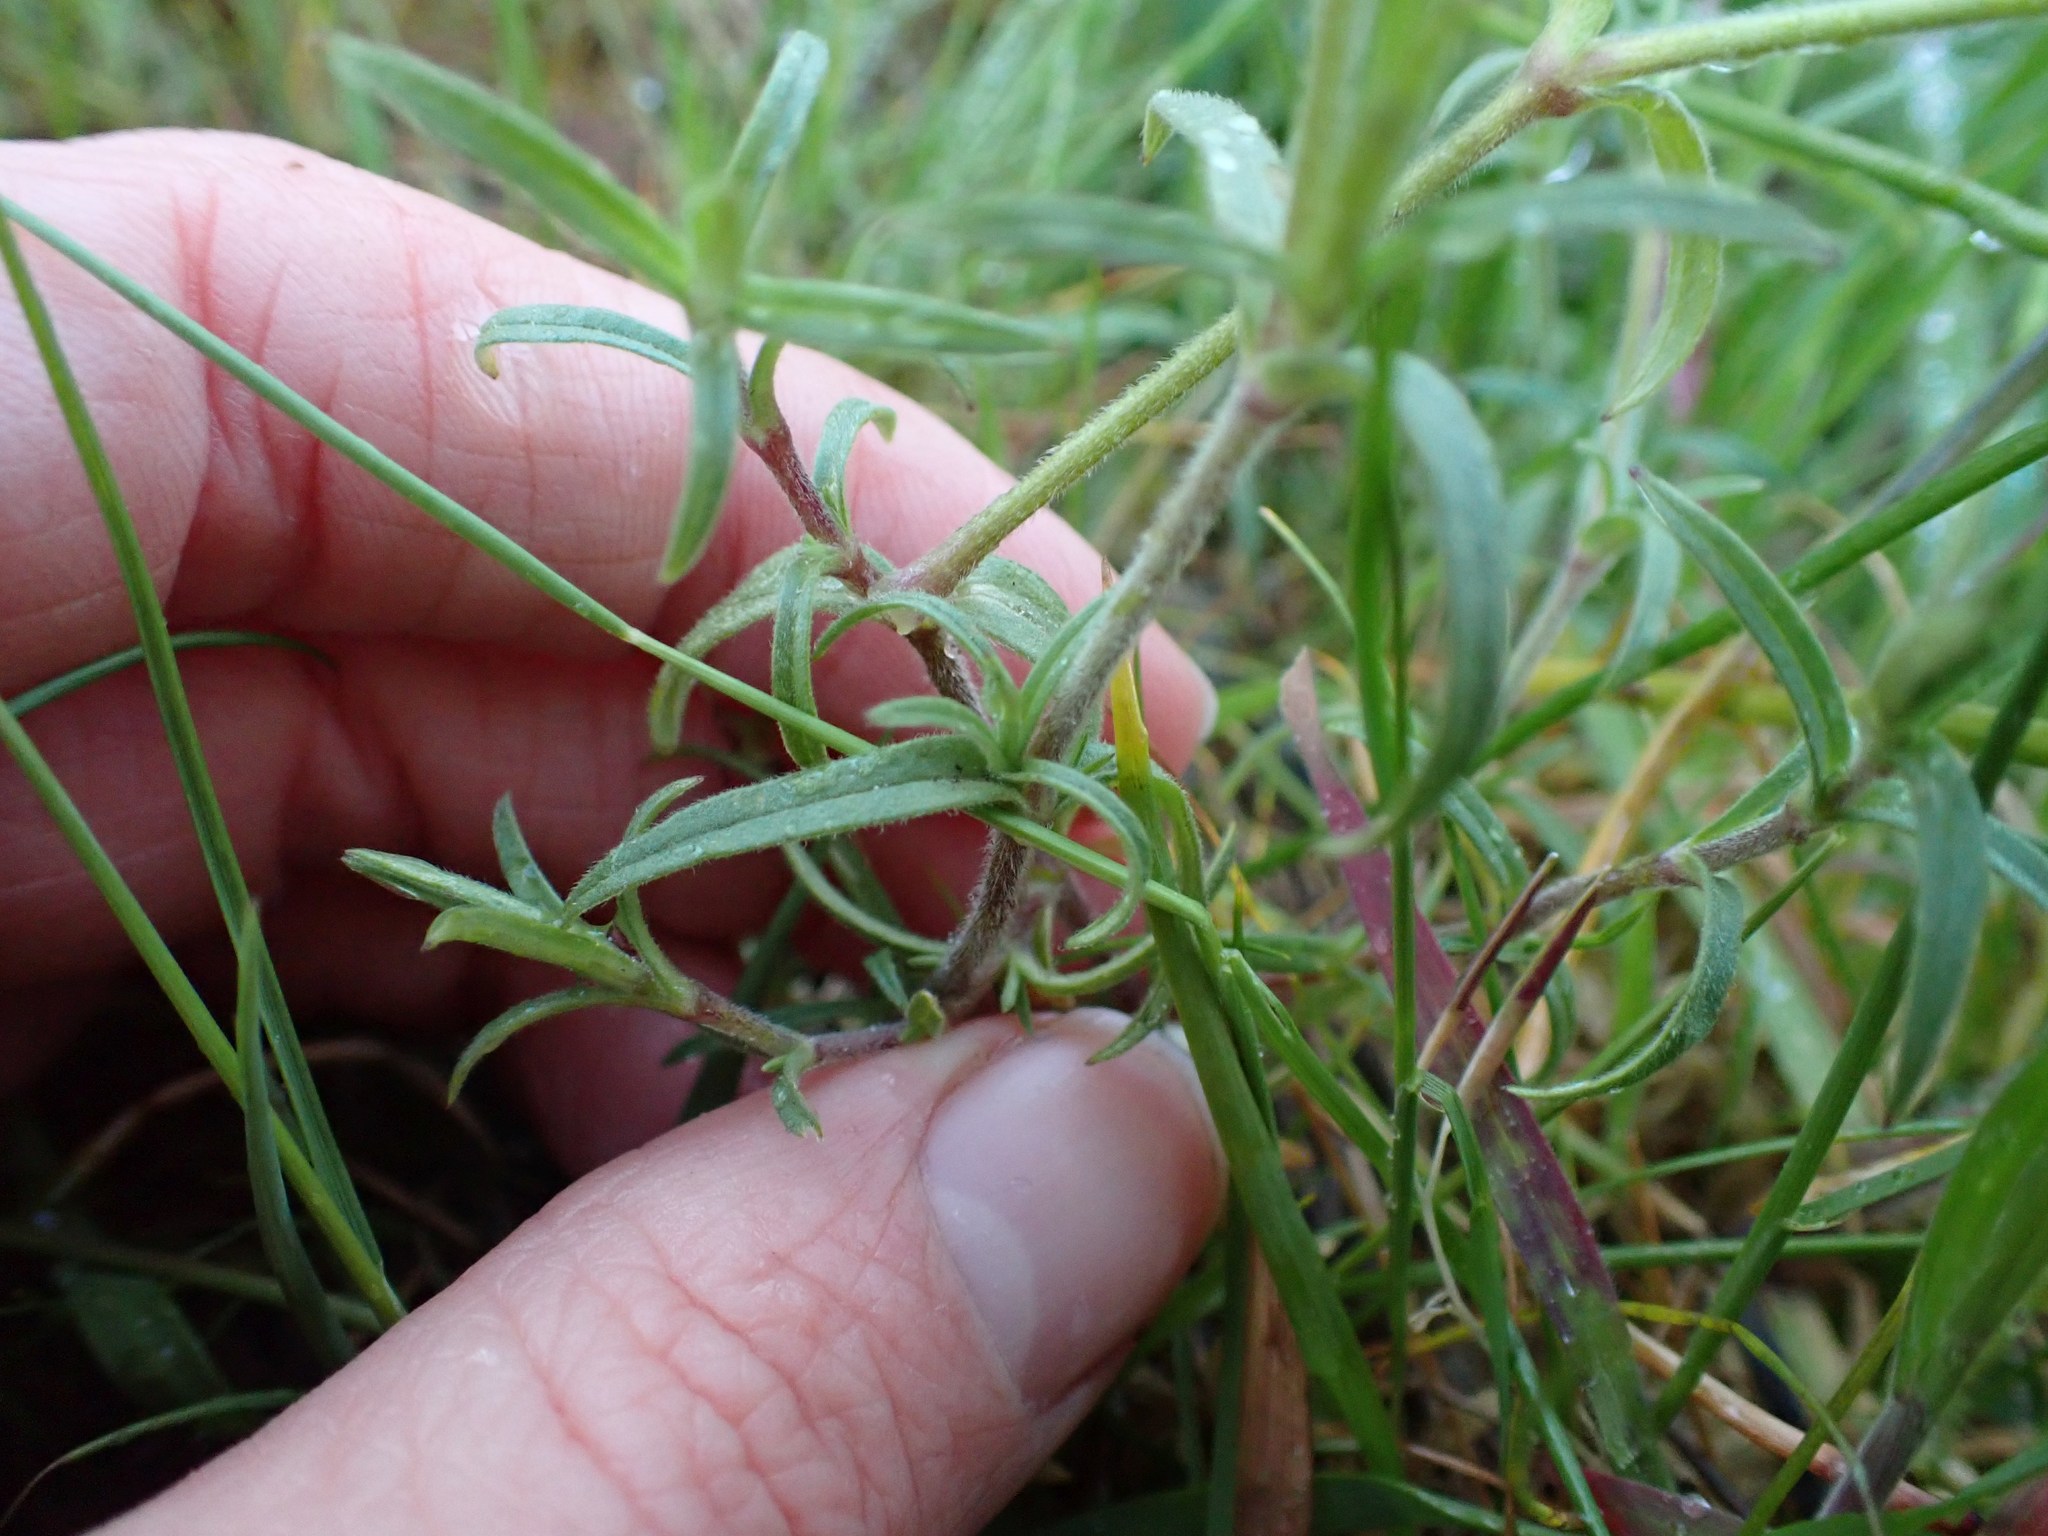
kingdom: Plantae
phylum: Tracheophyta
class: Magnoliopsida
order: Caryophyllales
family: Caryophyllaceae
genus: Cerastium
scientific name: Cerastium arvense
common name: Field mouse-ear
